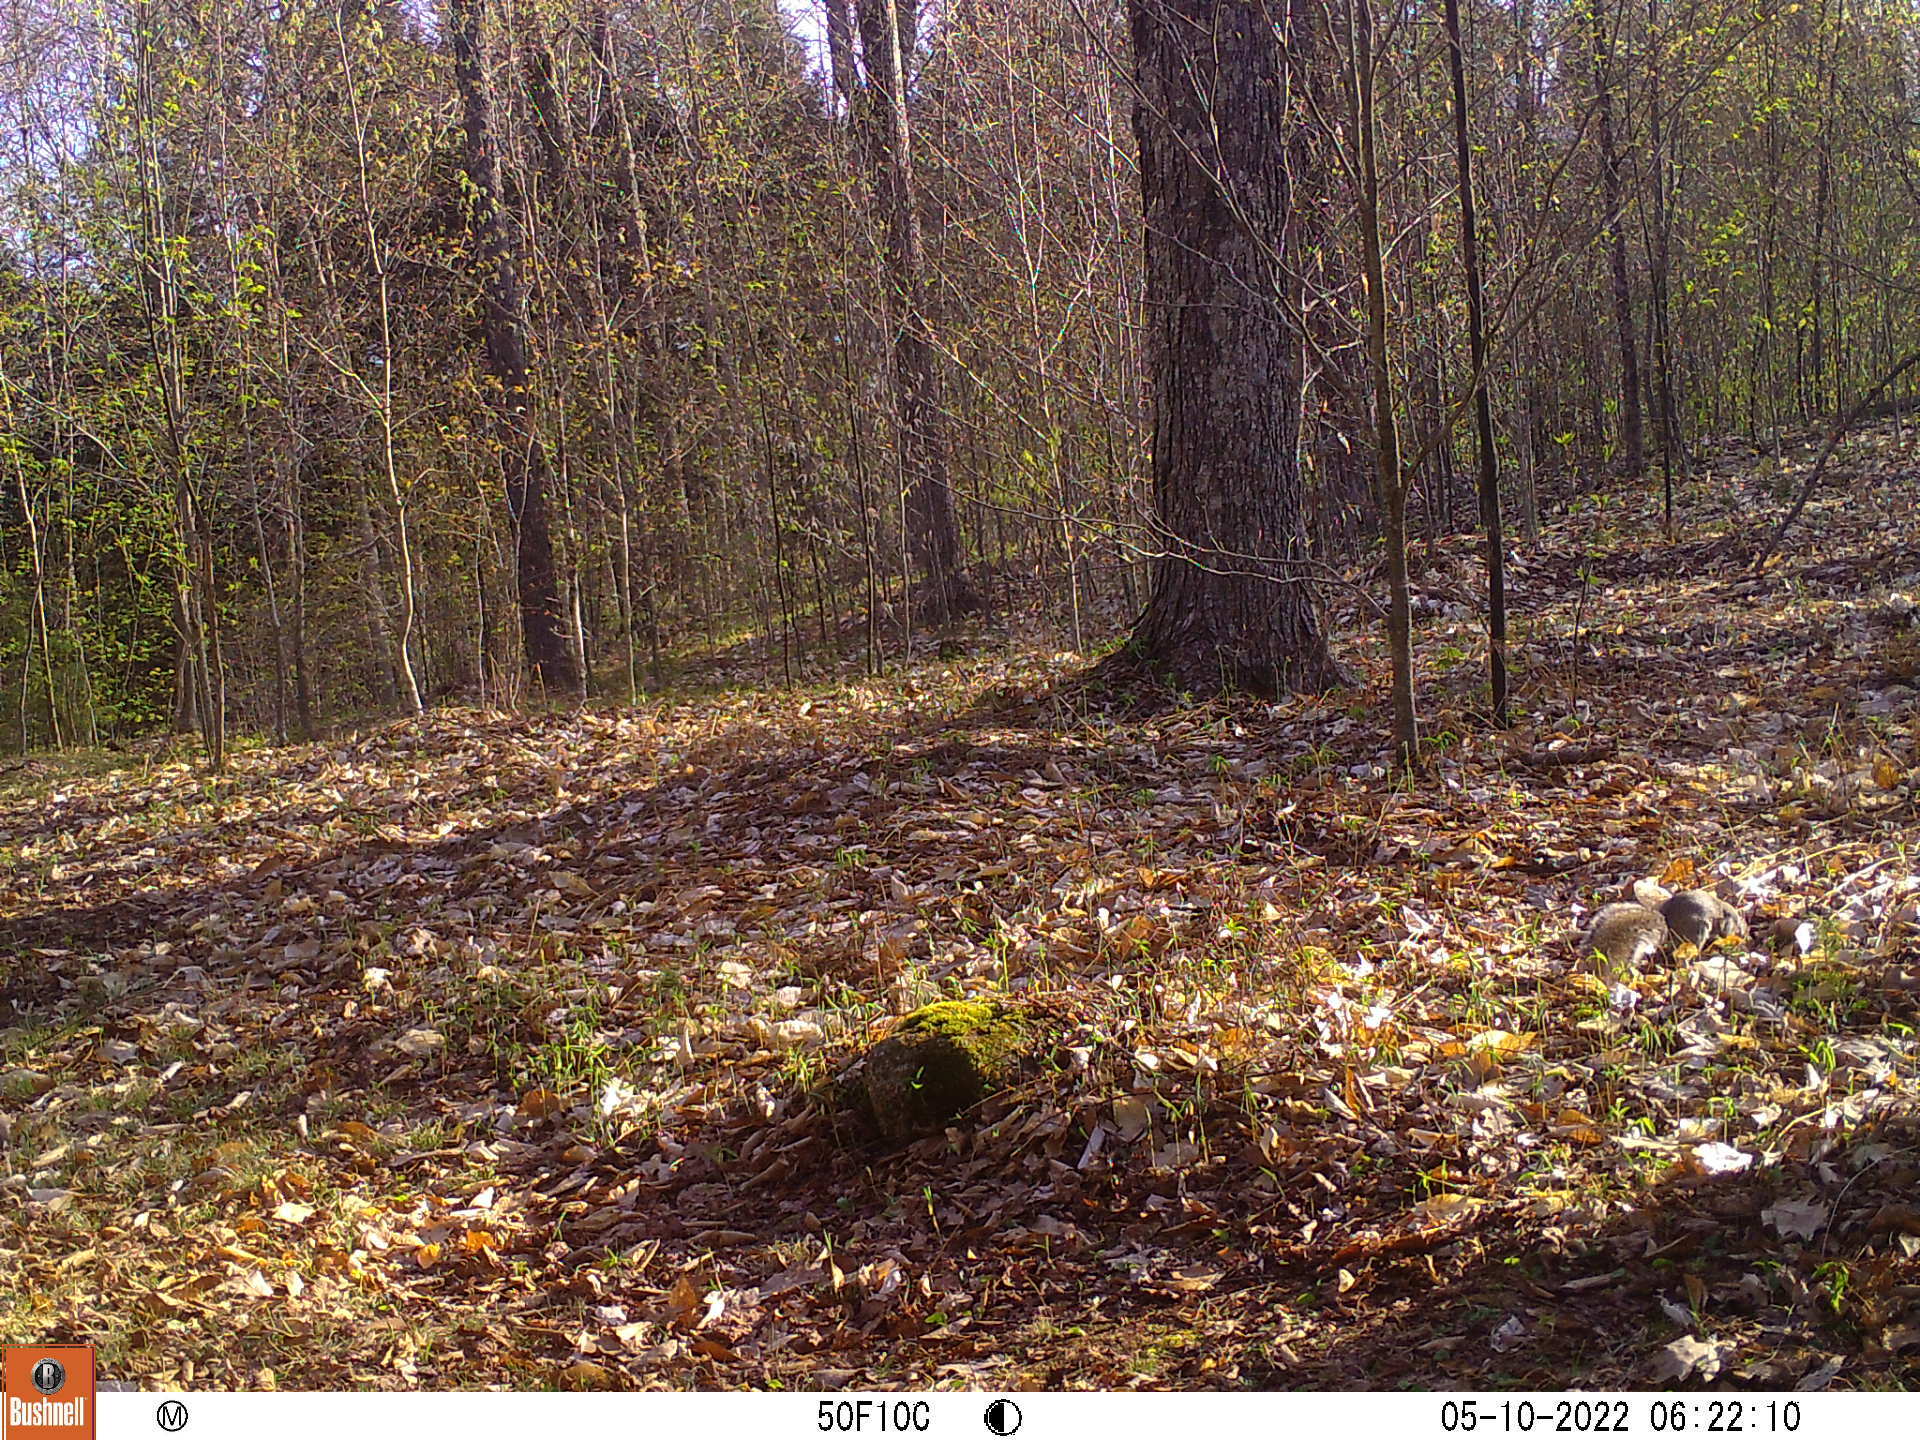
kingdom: Animalia
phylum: Chordata
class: Mammalia
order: Rodentia
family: Sciuridae
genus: Sciurus
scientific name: Sciurus carolinensis
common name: Eastern gray squirrel
